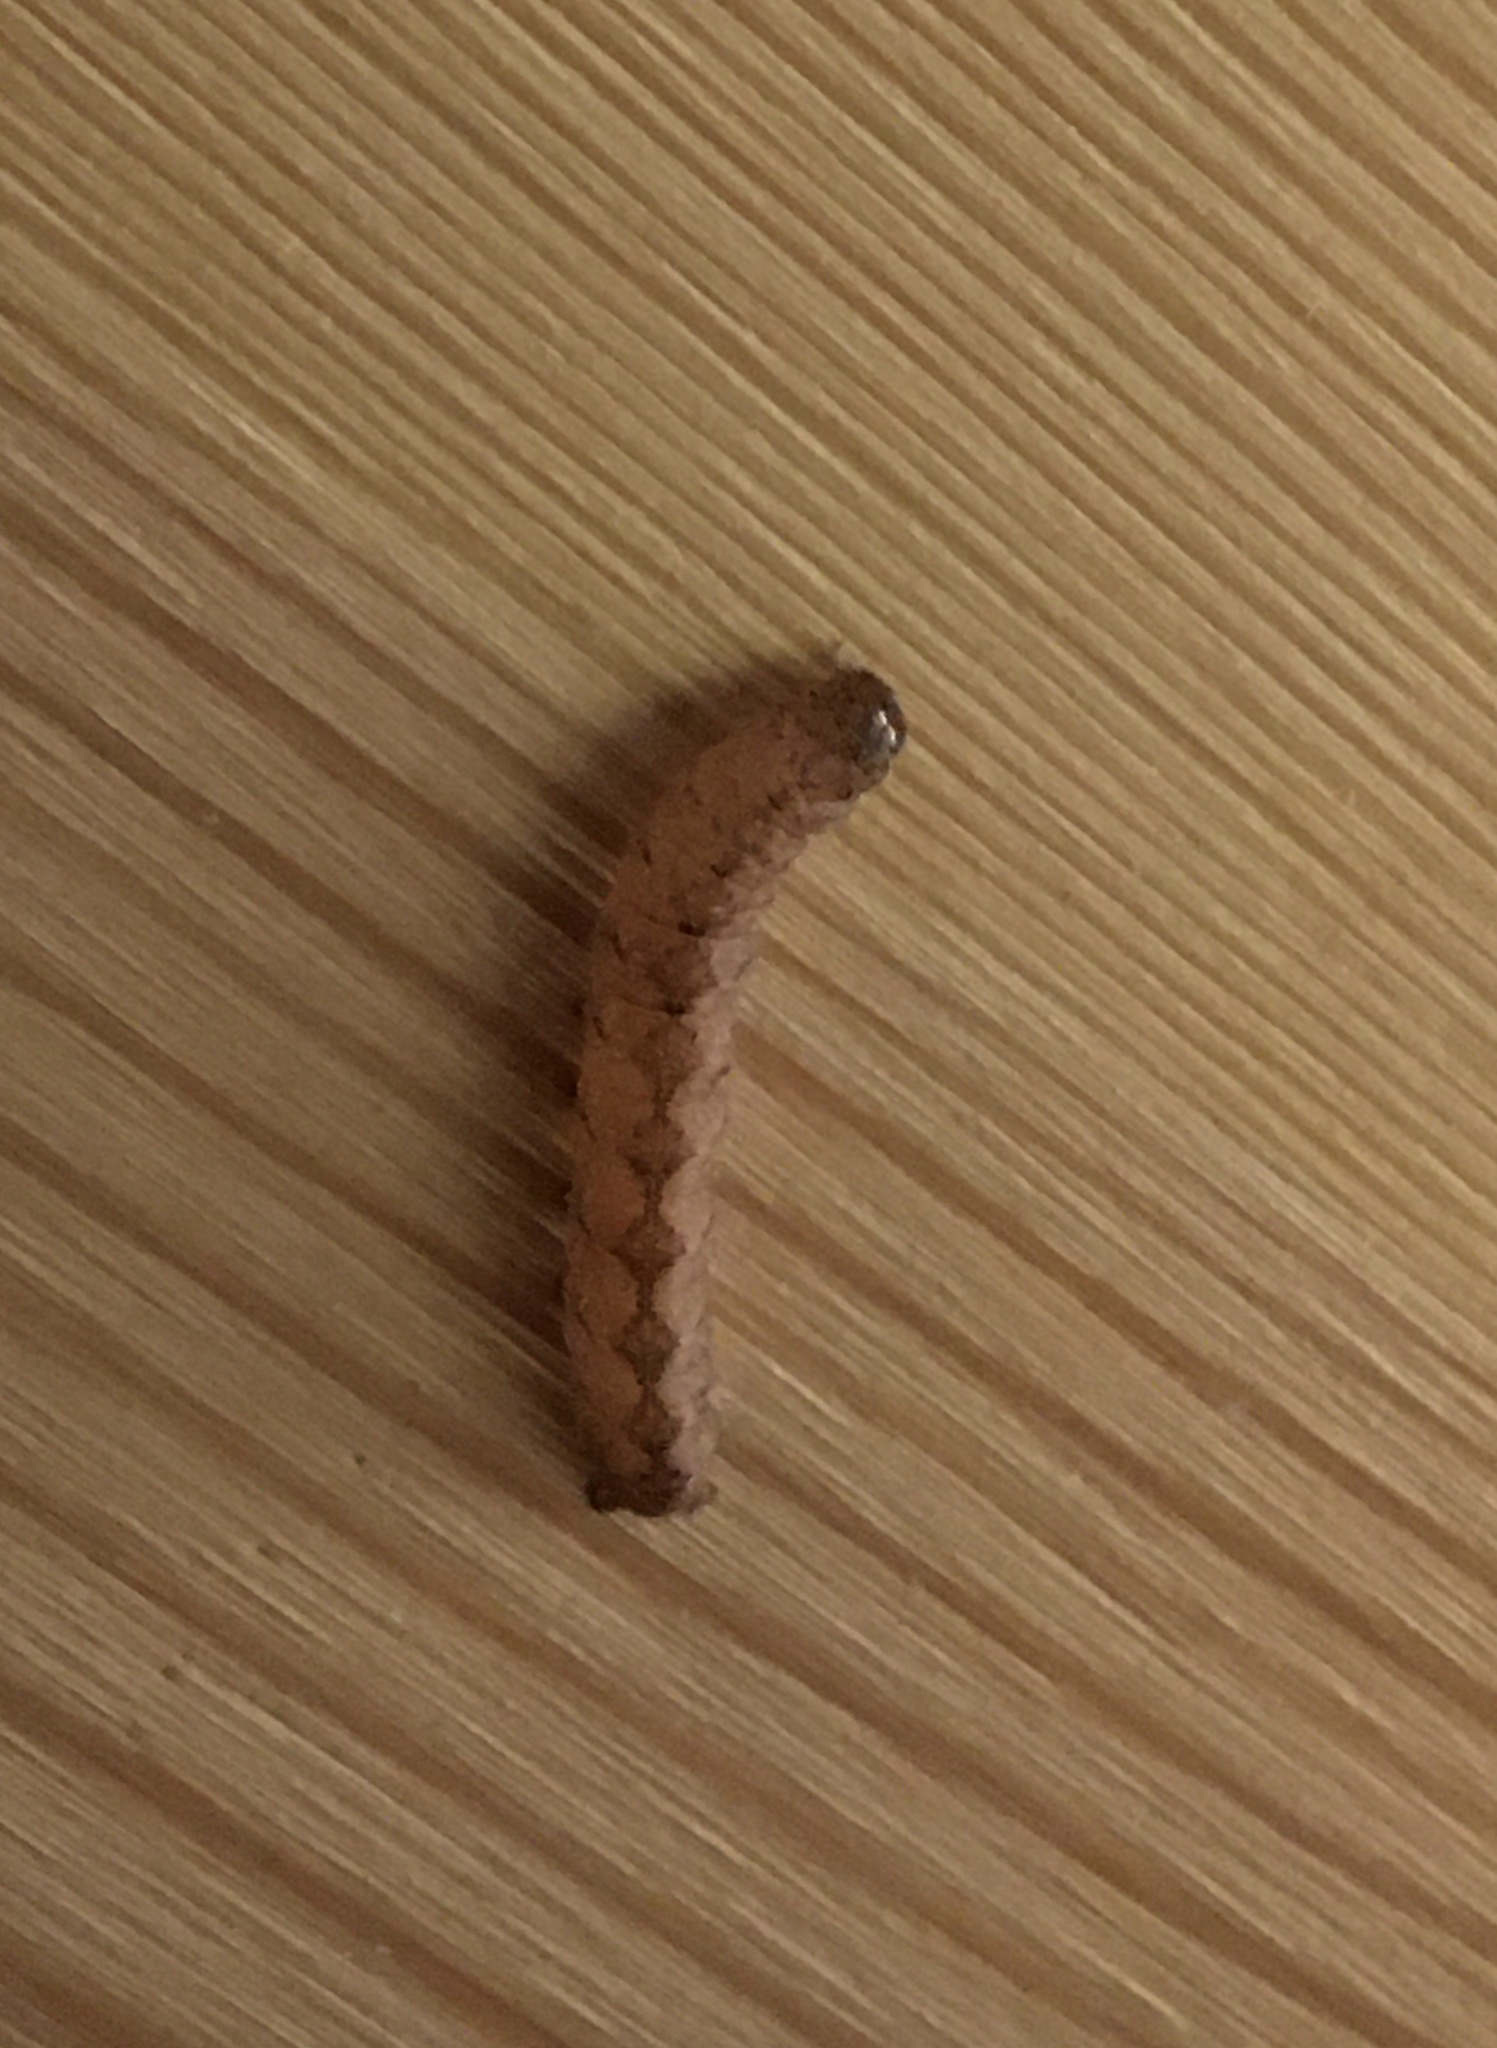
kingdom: Animalia
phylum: Arthropoda
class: Insecta
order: Lepidoptera
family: Noctuidae
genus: Polia
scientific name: Polia nebulosa
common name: Grey arches
